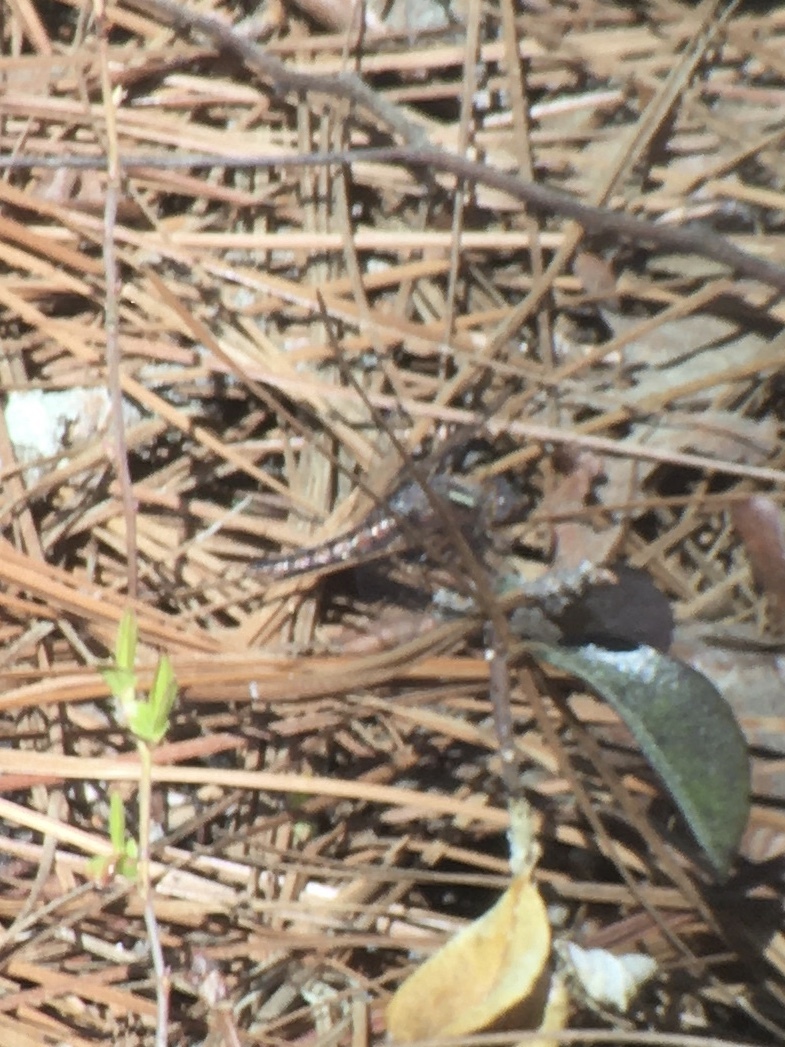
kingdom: Animalia
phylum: Arthropoda
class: Insecta
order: Odonata
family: Libellulidae
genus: Ladona
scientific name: Ladona deplanata
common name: Blue corporal
